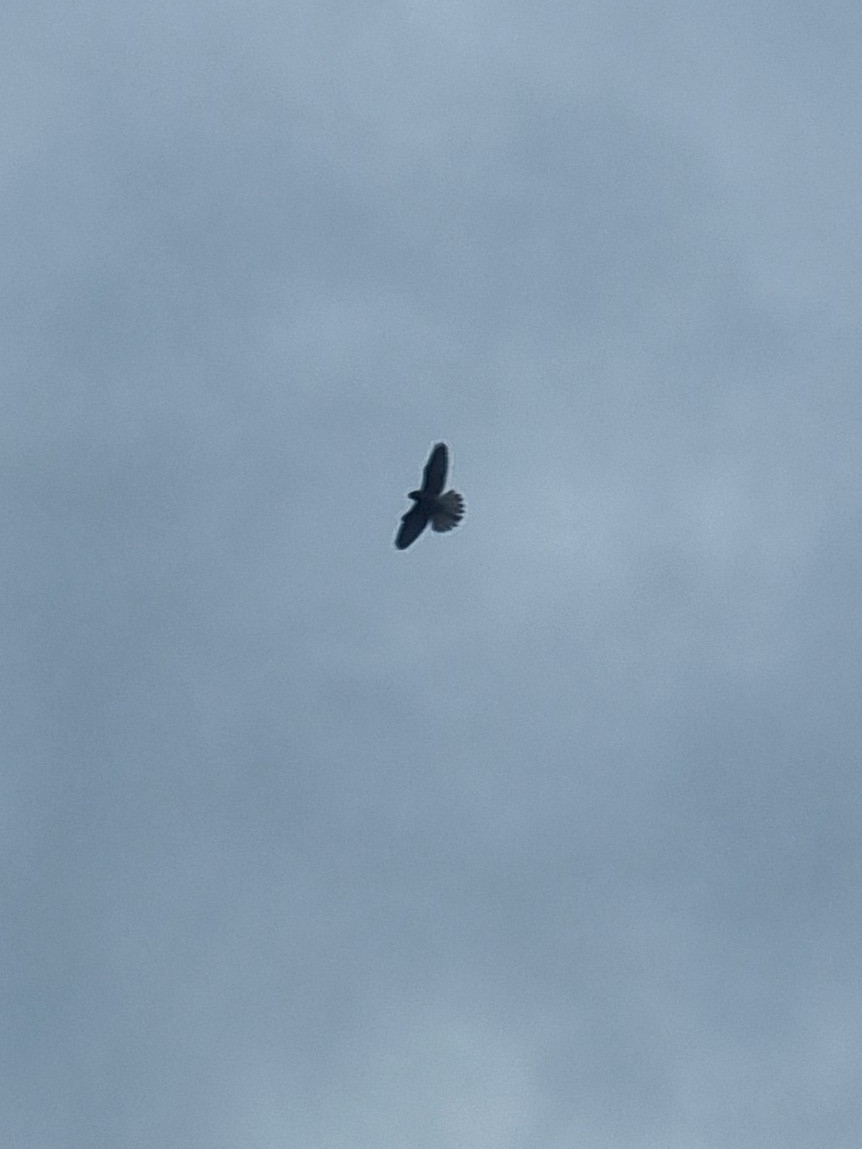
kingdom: Animalia
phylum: Chordata
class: Aves
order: Falconiformes
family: Falconidae
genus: Falco
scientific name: Falco tinnunculus
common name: Common kestrel
